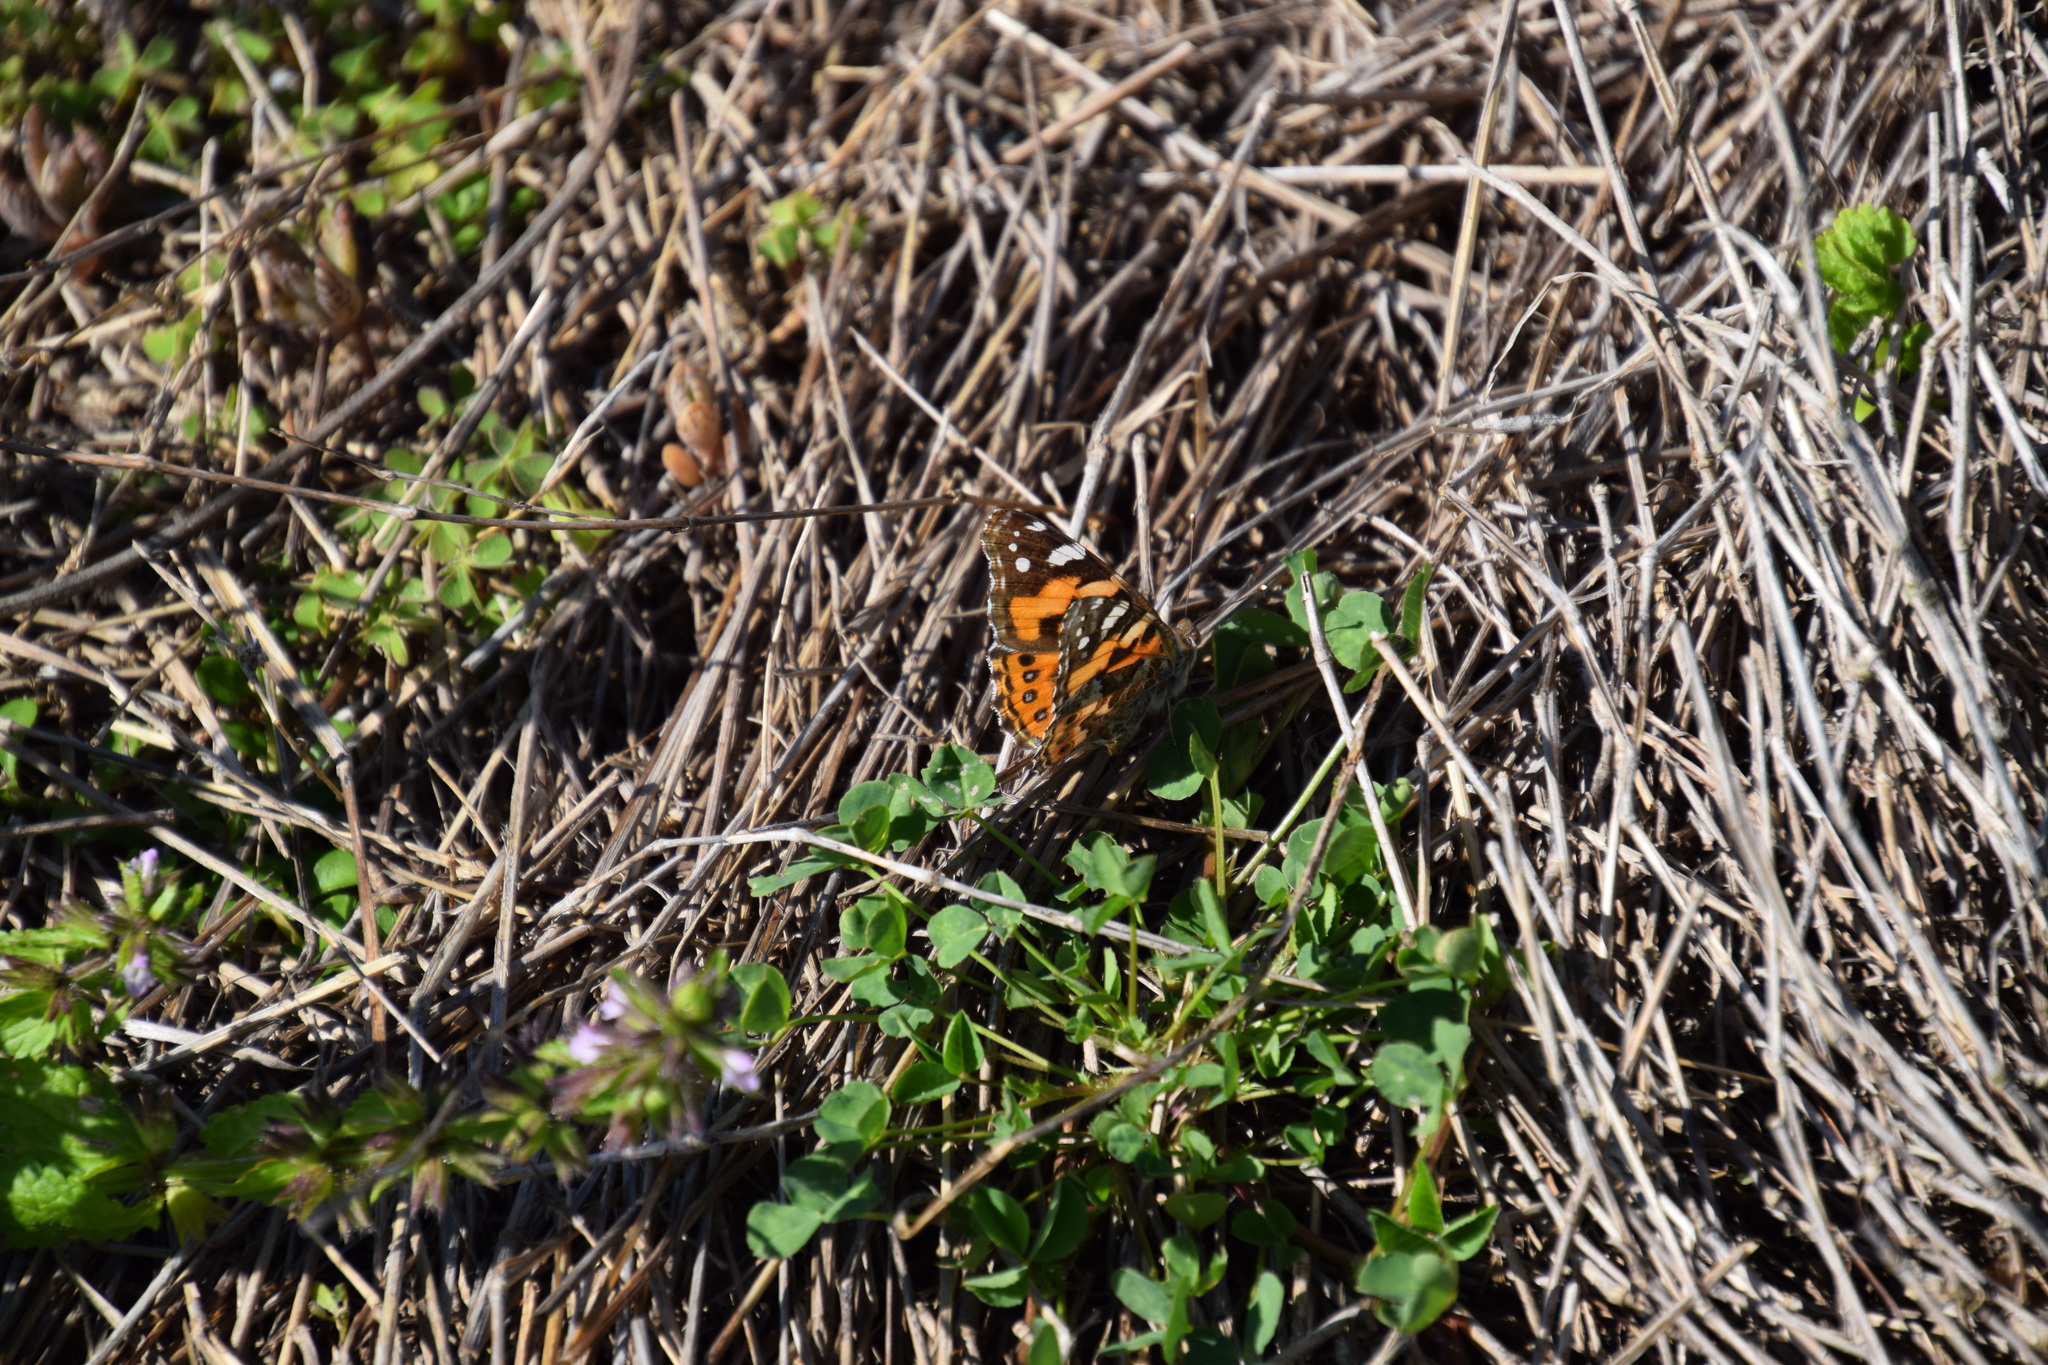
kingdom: Animalia
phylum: Arthropoda
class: Insecta
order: Lepidoptera
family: Nymphalidae
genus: Vanessa
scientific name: Vanessa kershawi
